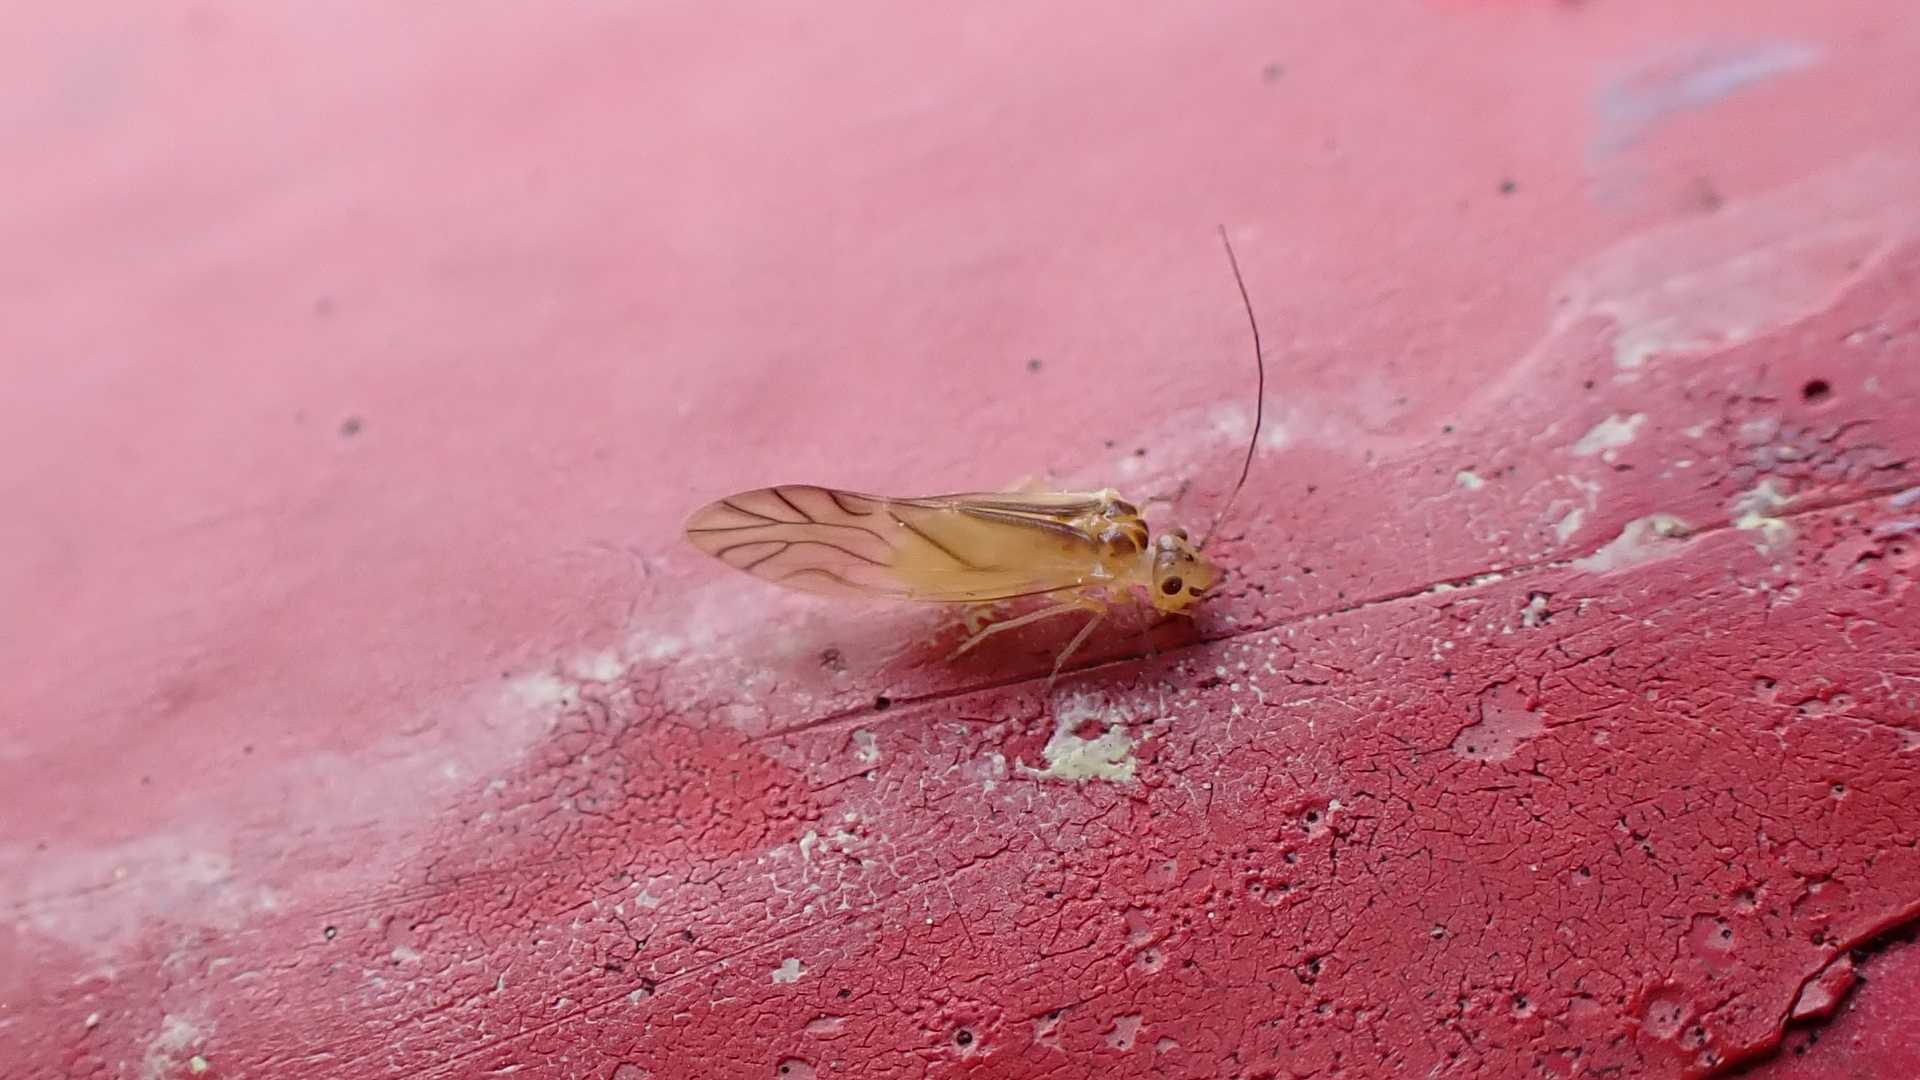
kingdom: Animalia
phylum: Arthropoda
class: Insecta
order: Psocodea
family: Caeciliusidae
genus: Valenzuela
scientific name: Valenzuela flavidus
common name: Yellow barklouse
